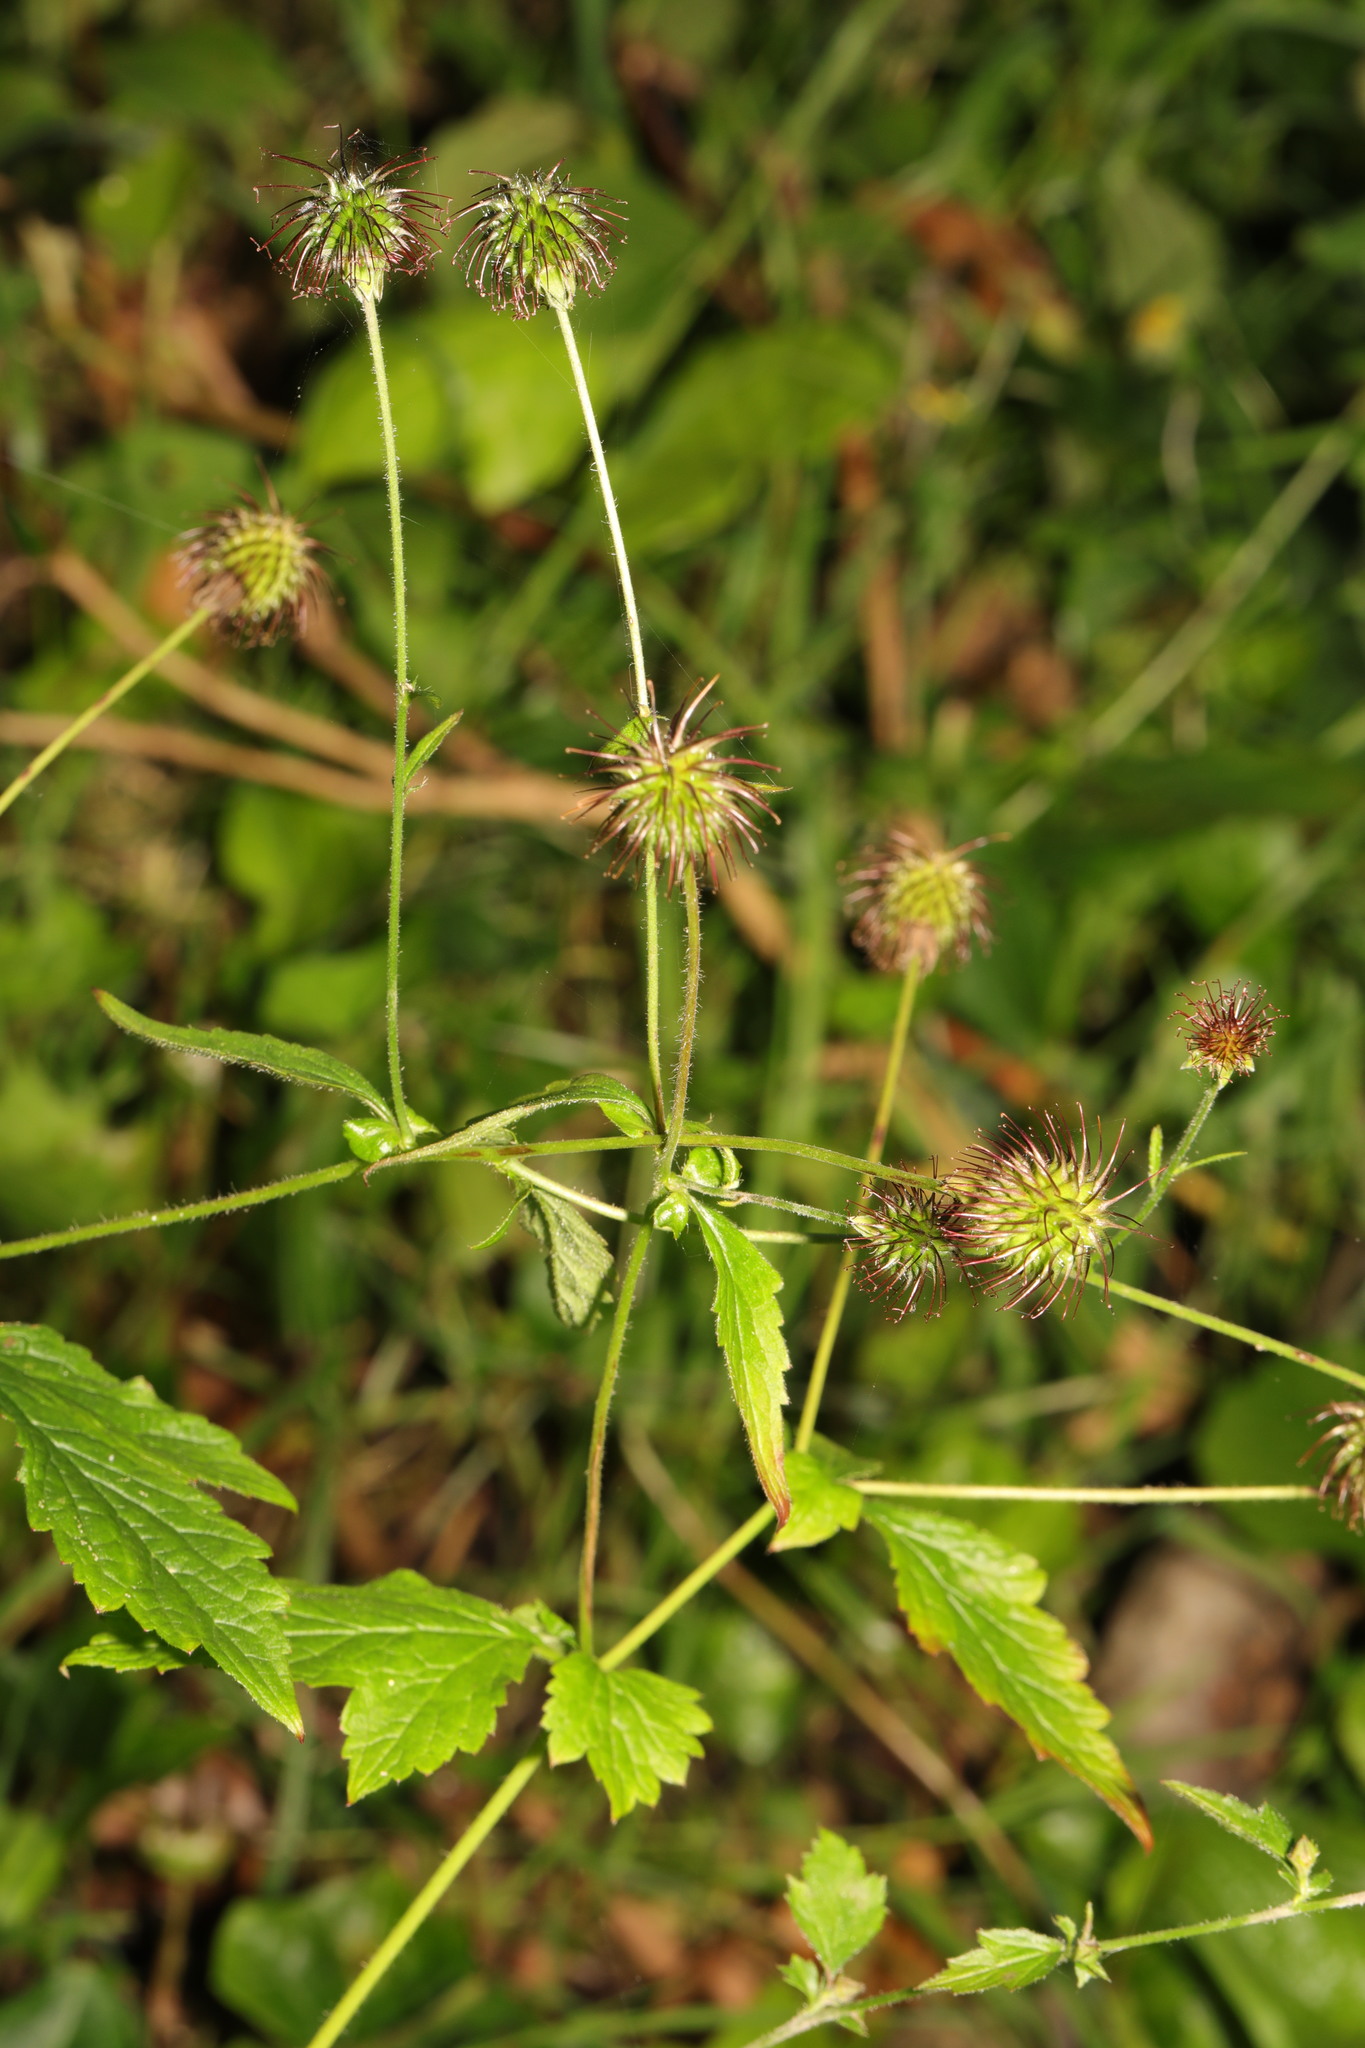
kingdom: Plantae
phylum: Tracheophyta
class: Magnoliopsida
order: Rosales
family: Rosaceae
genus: Geum
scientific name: Geum urbanum
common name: Wood avens
